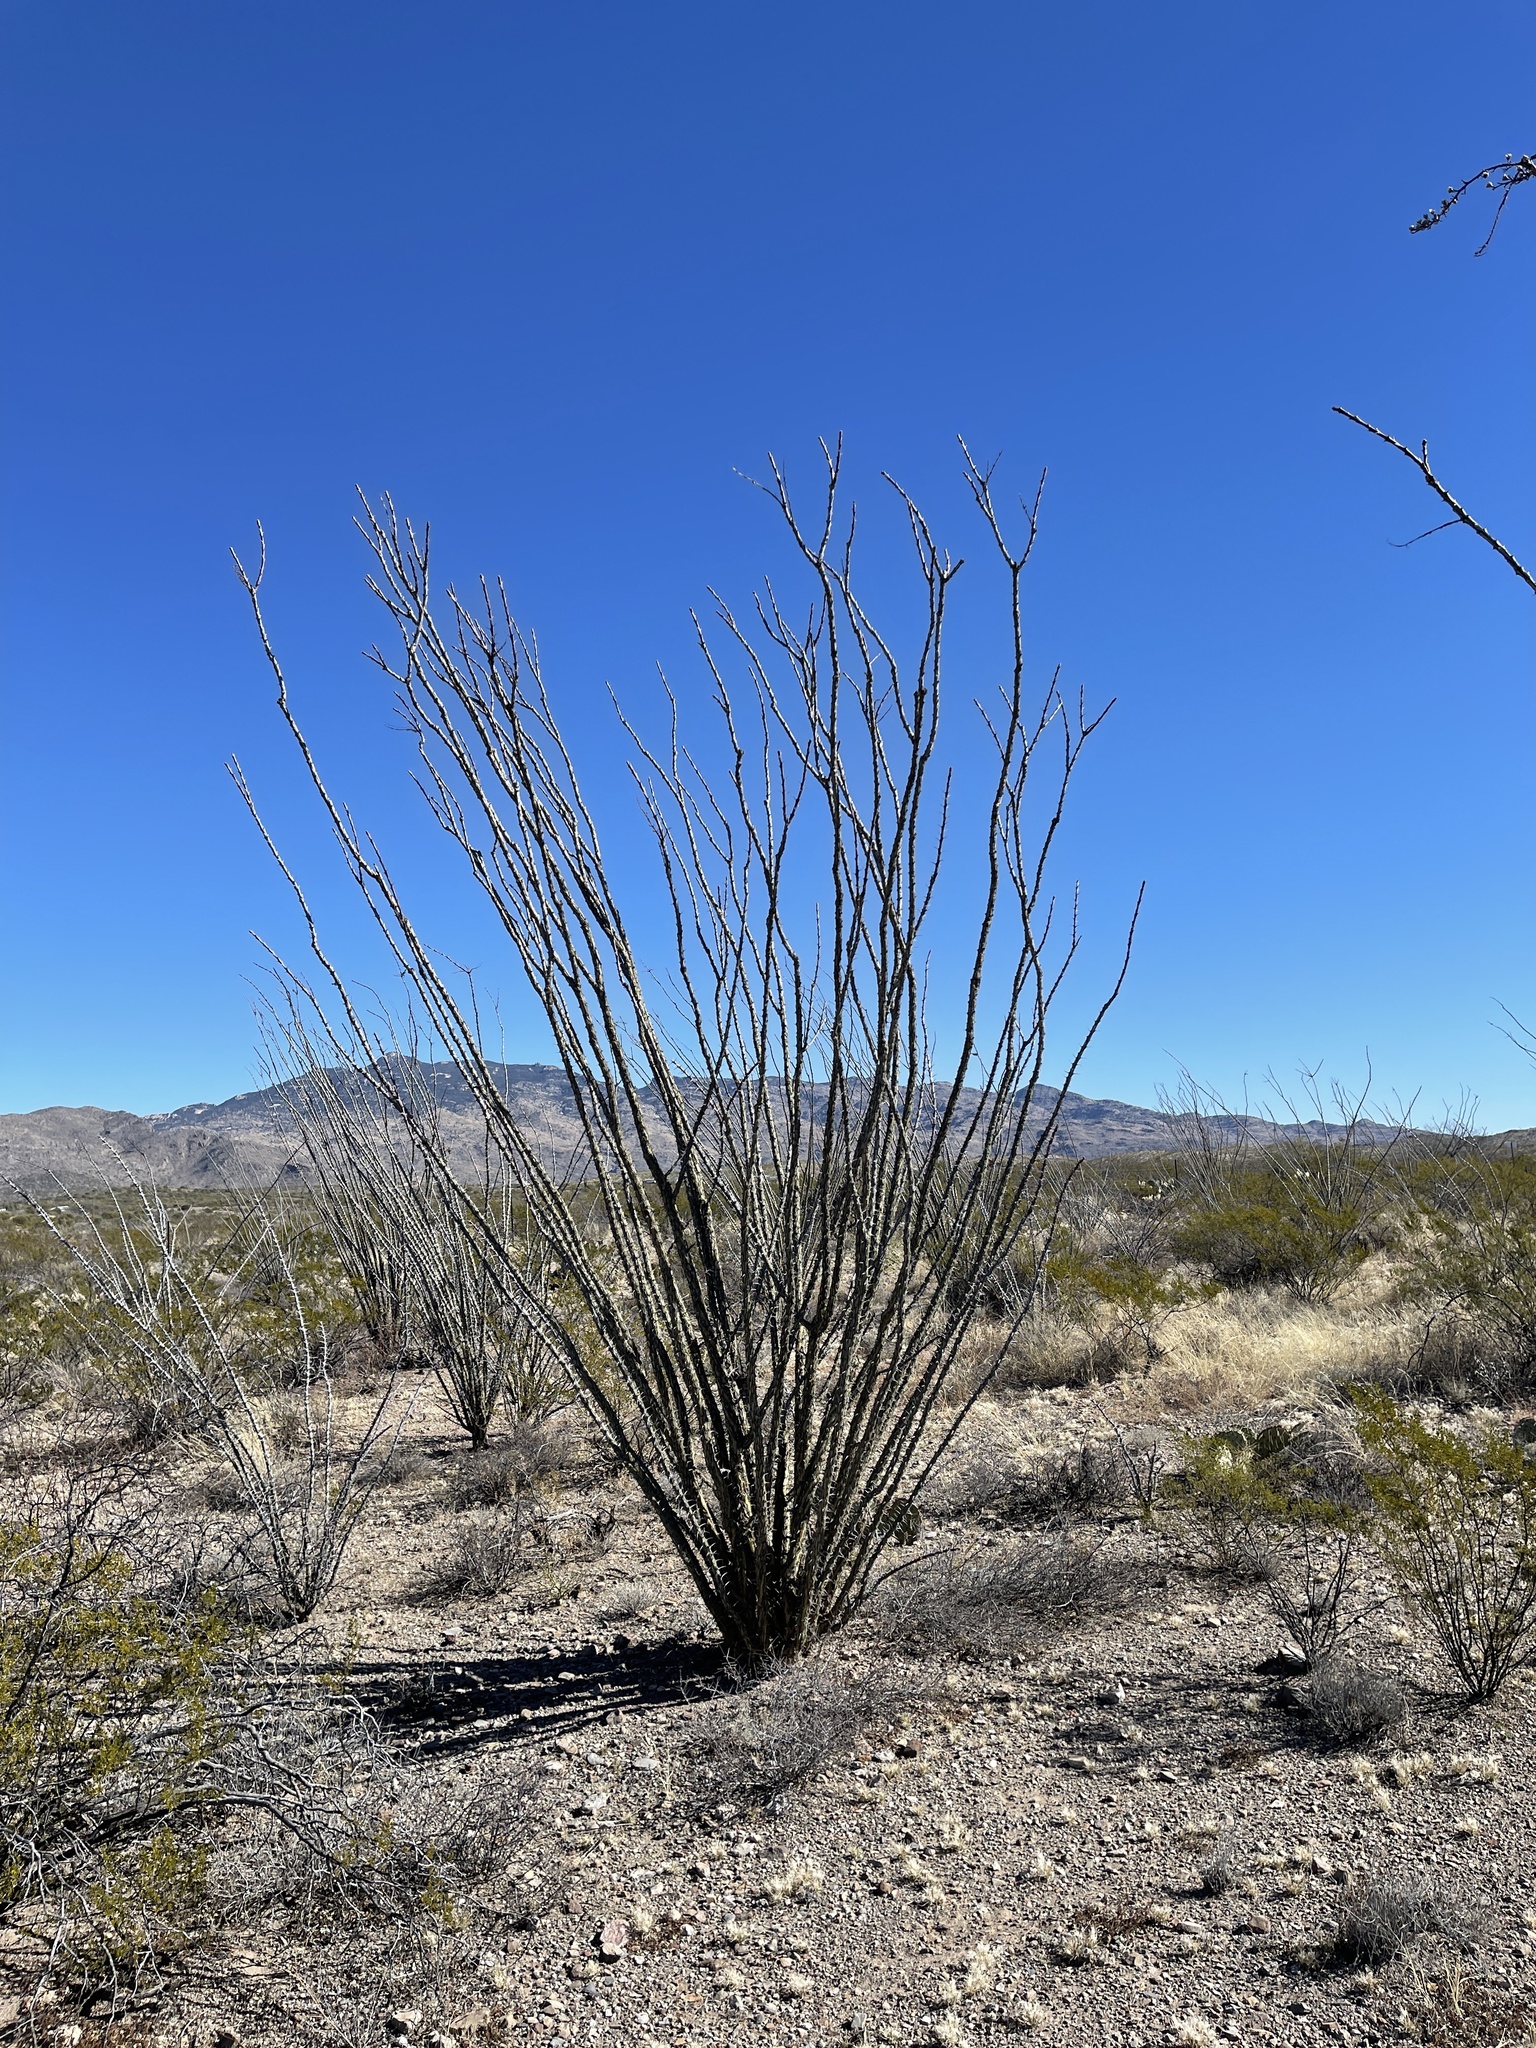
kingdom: Plantae
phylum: Tracheophyta
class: Magnoliopsida
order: Ericales
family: Fouquieriaceae
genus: Fouquieria
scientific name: Fouquieria splendens
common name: Vine-cactus
